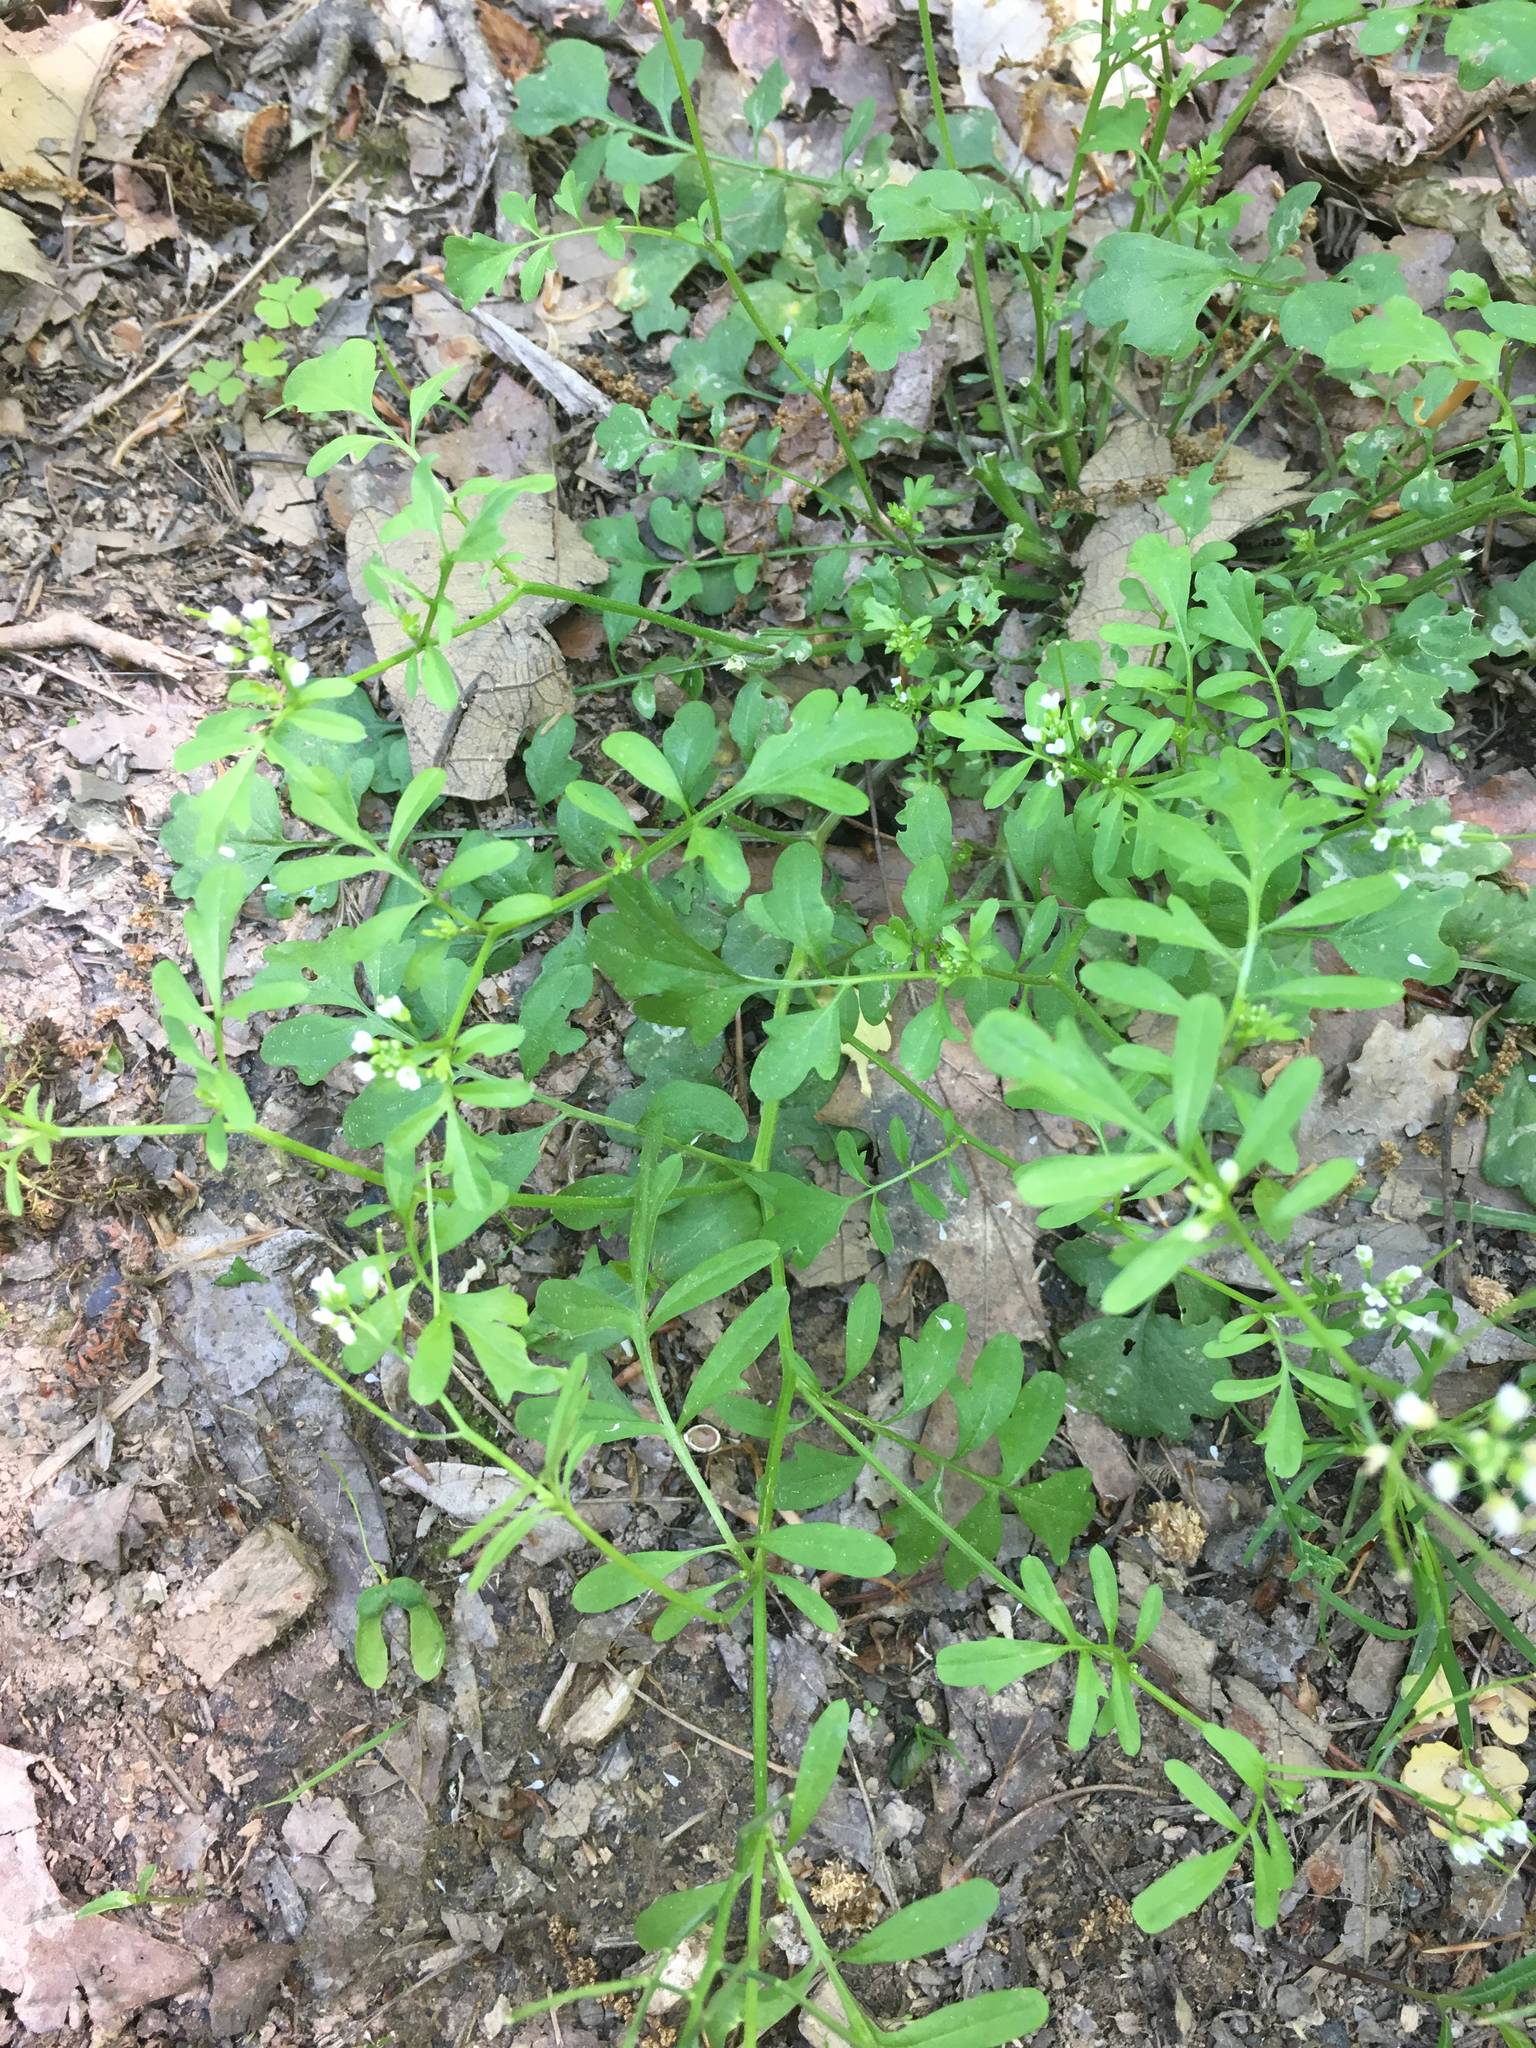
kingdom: Plantae
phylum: Tracheophyta
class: Magnoliopsida
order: Brassicales
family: Brassicaceae
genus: Cardamine
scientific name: Cardamine pensylvanica
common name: Pennsylvania bittercress
